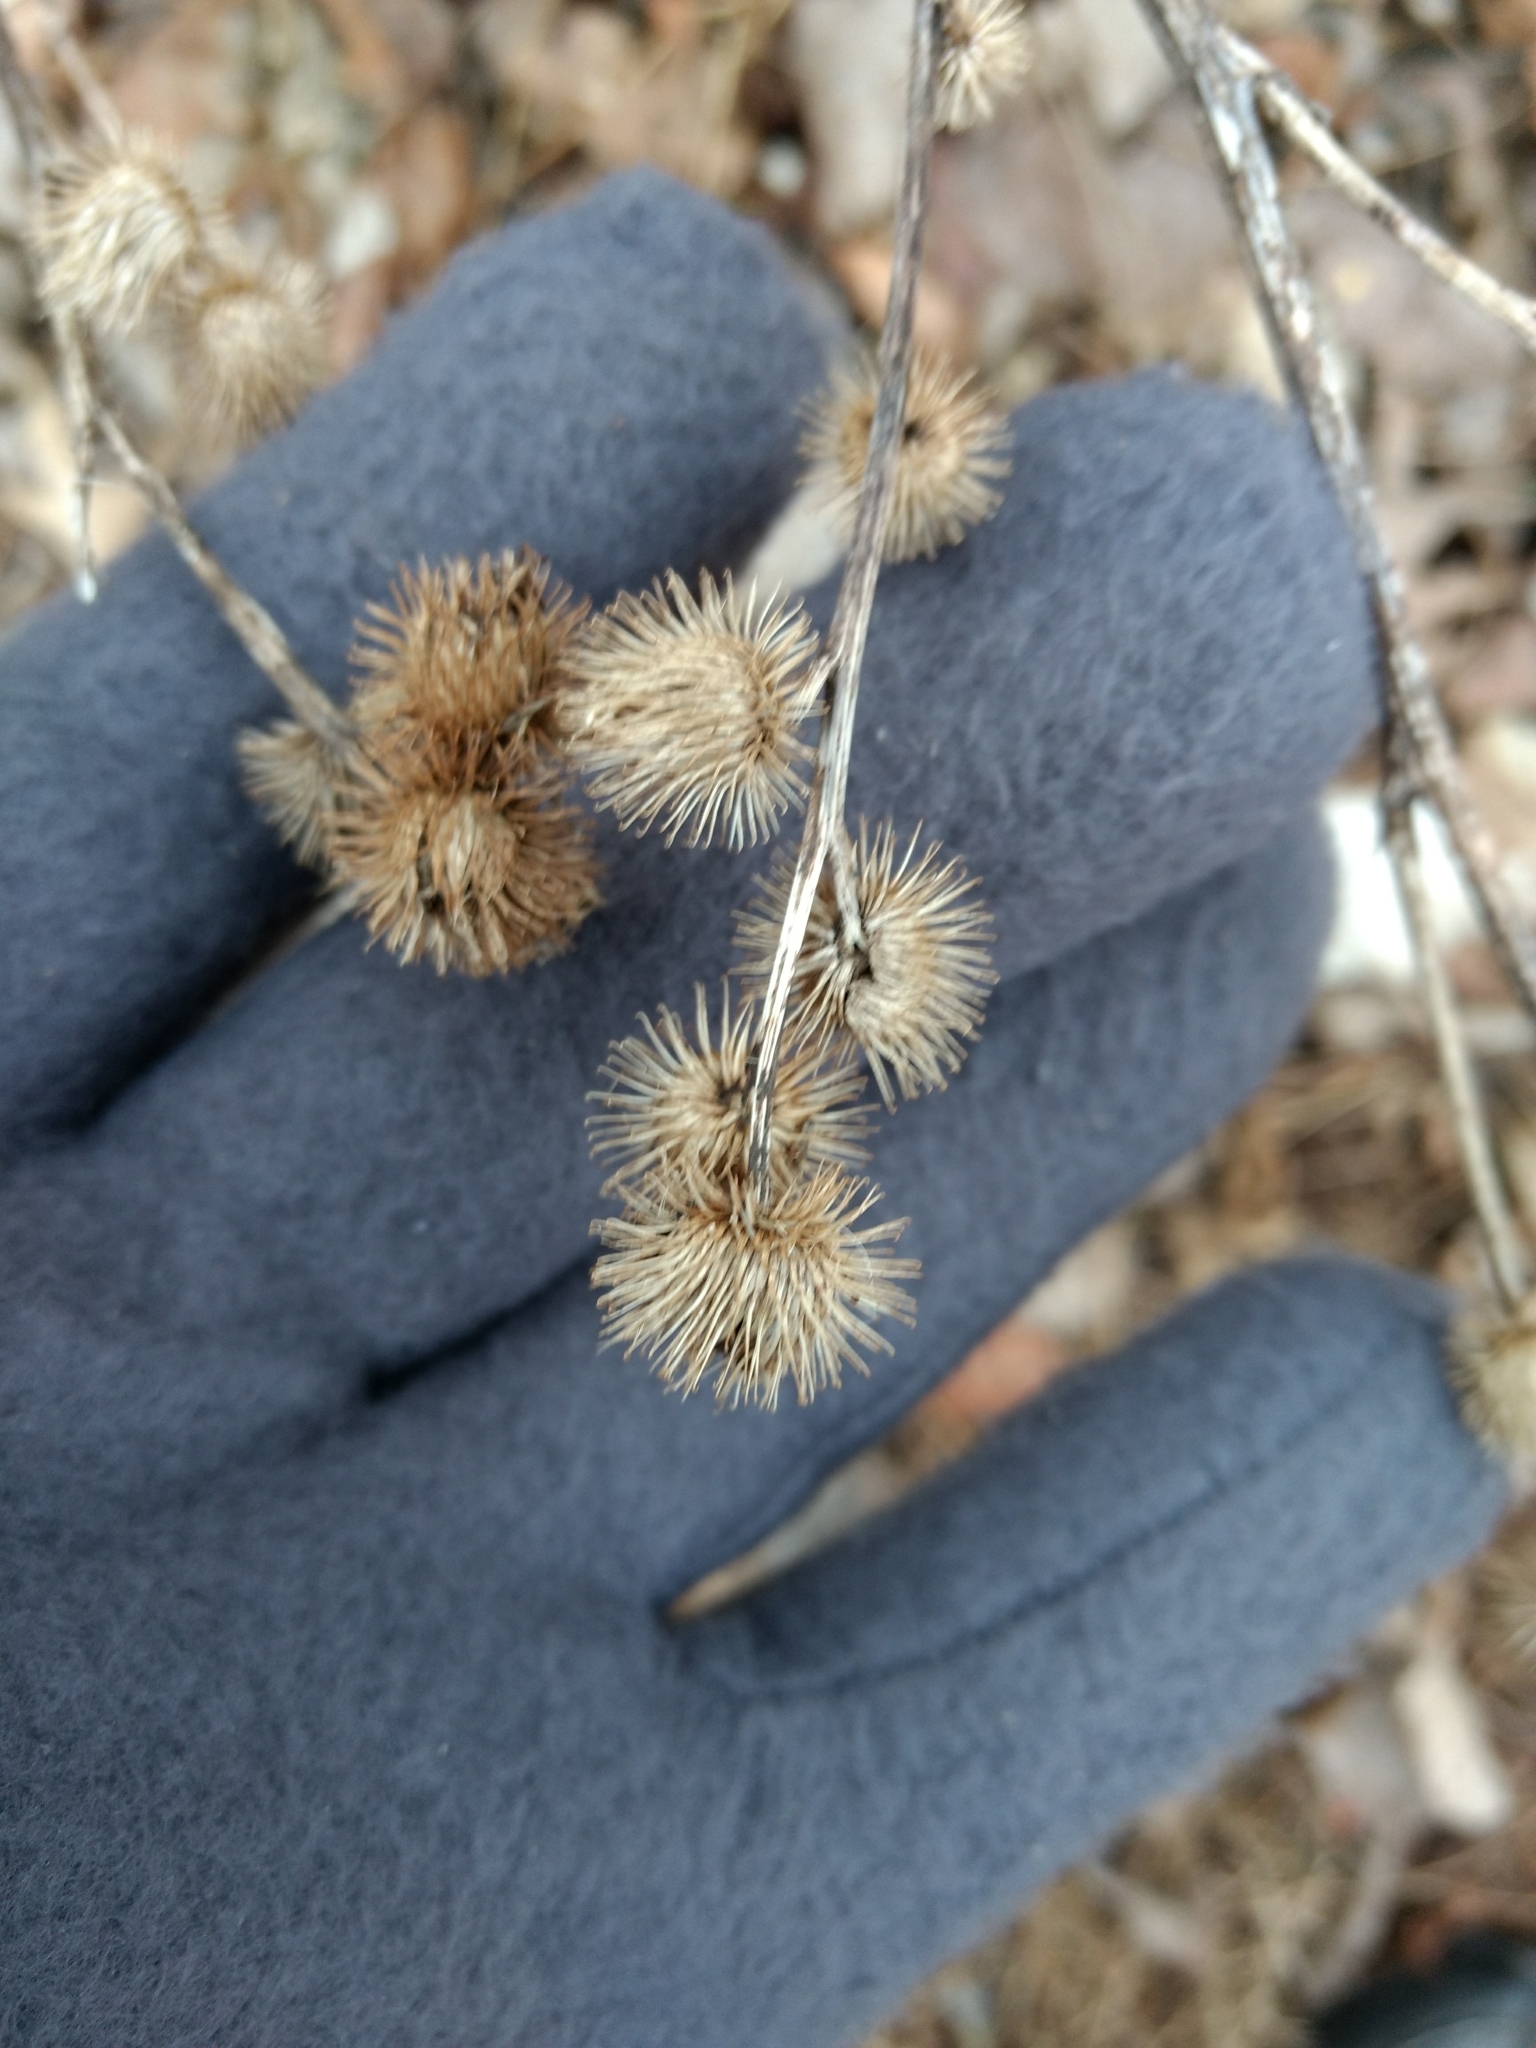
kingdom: Plantae
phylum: Tracheophyta
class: Magnoliopsida
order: Asterales
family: Asteraceae
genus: Arctium
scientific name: Arctium minus
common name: Lesser burdock
